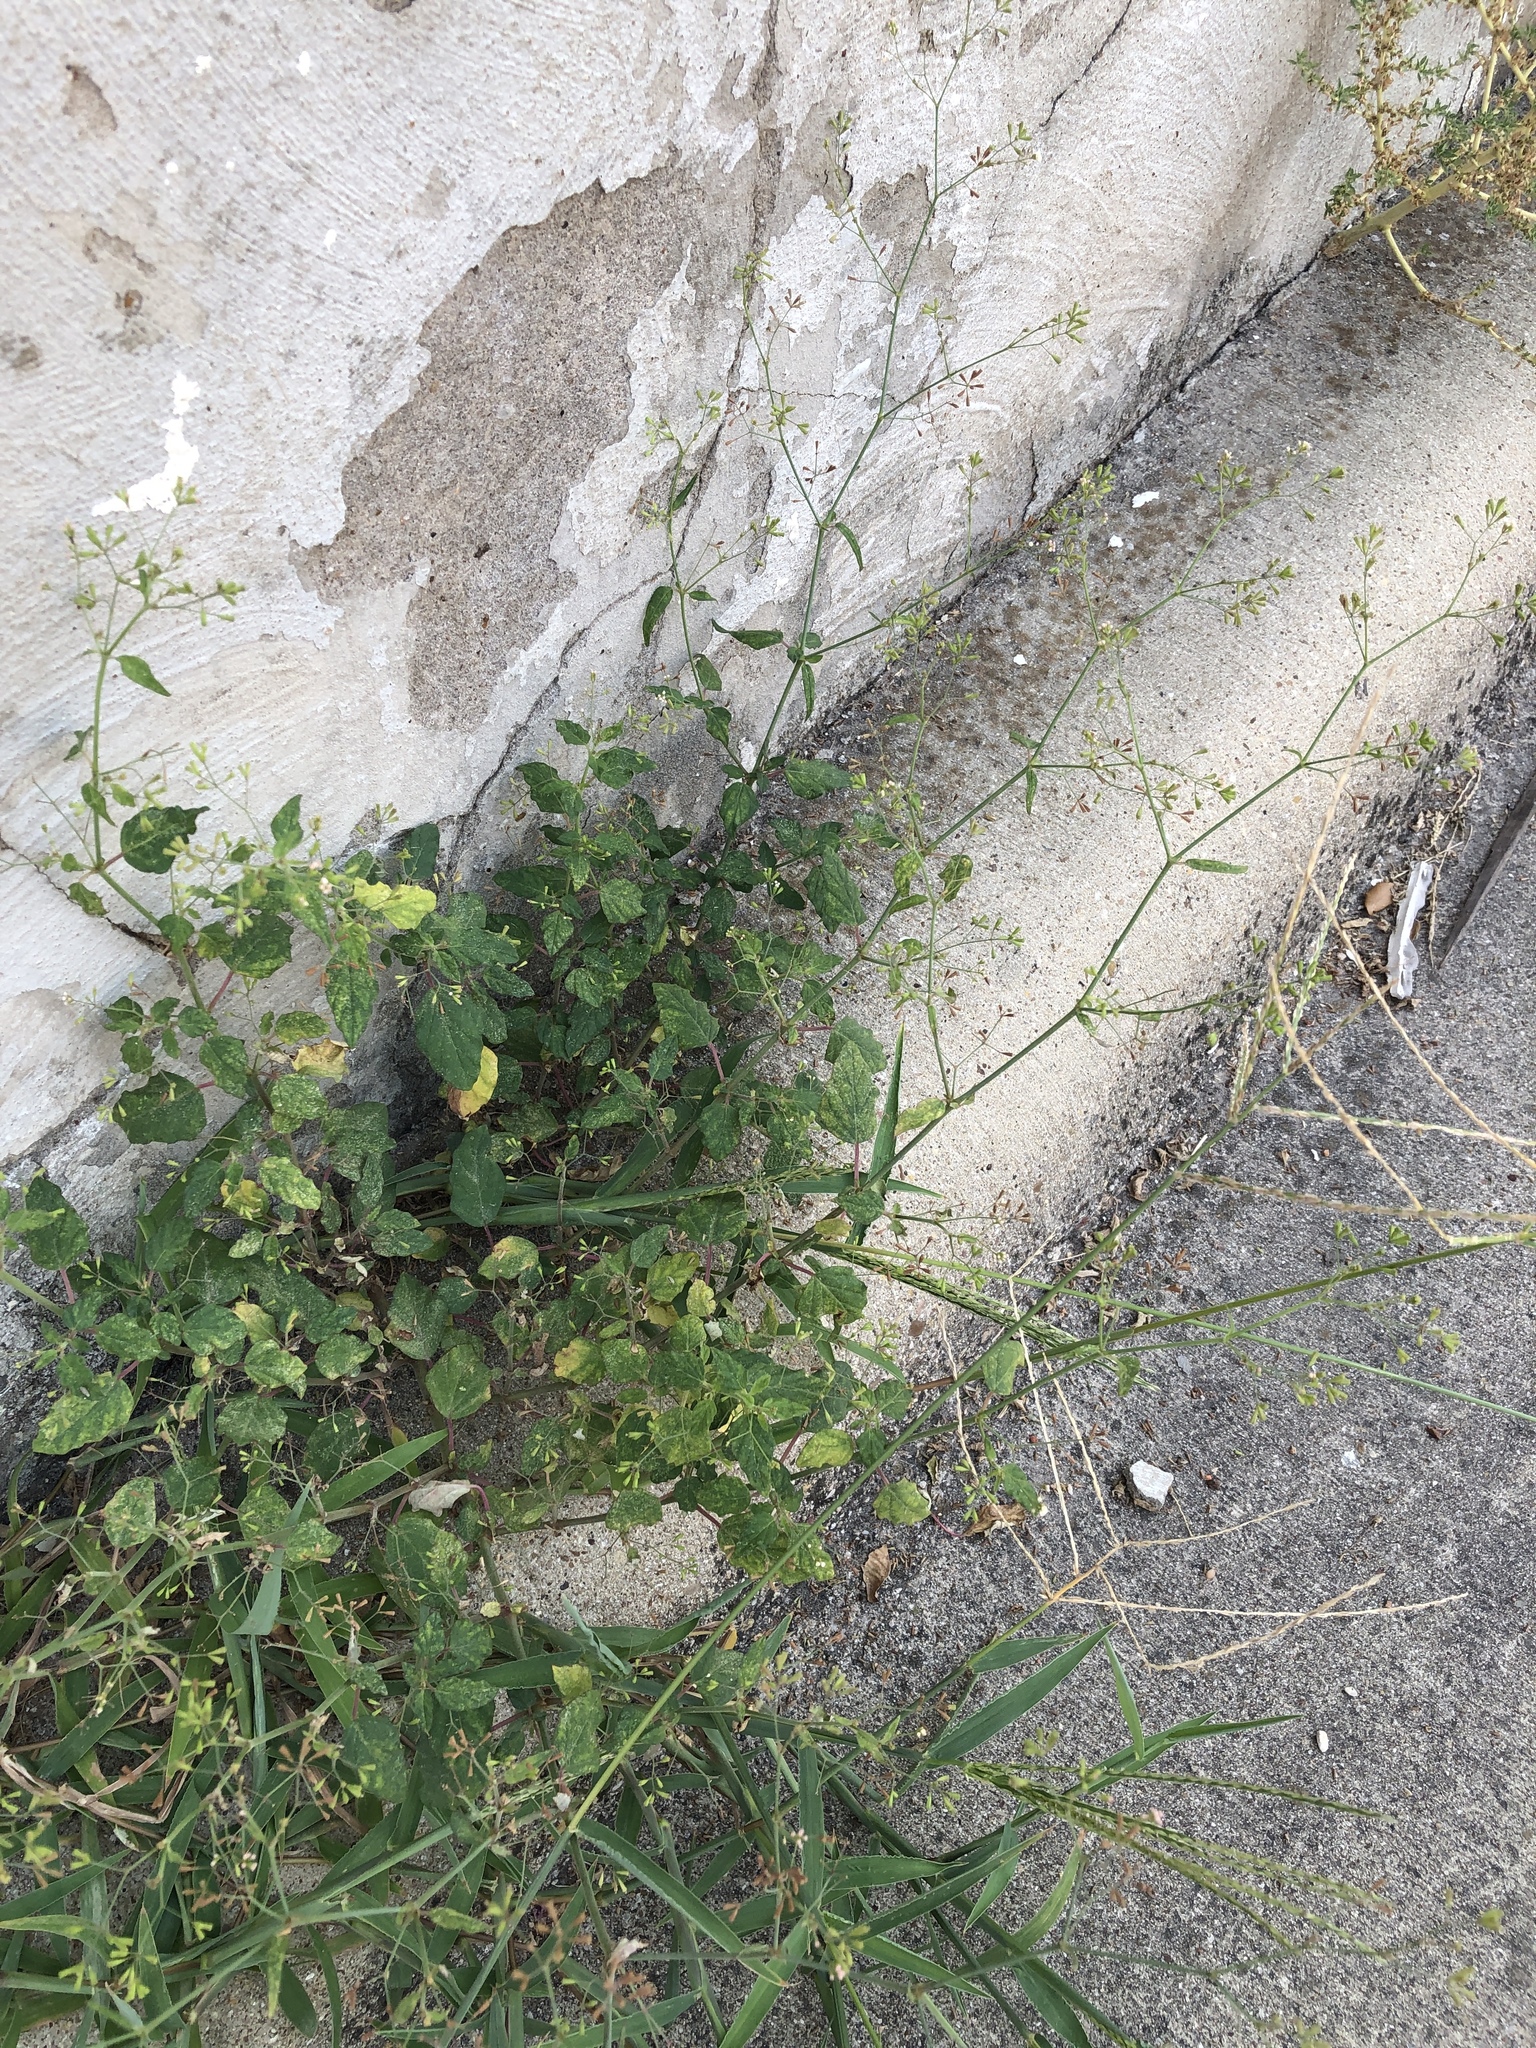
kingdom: Plantae
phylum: Tracheophyta
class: Magnoliopsida
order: Caryophyllales
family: Nyctaginaceae
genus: Boerhavia
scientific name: Boerhavia erecta
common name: Erect spiderling
